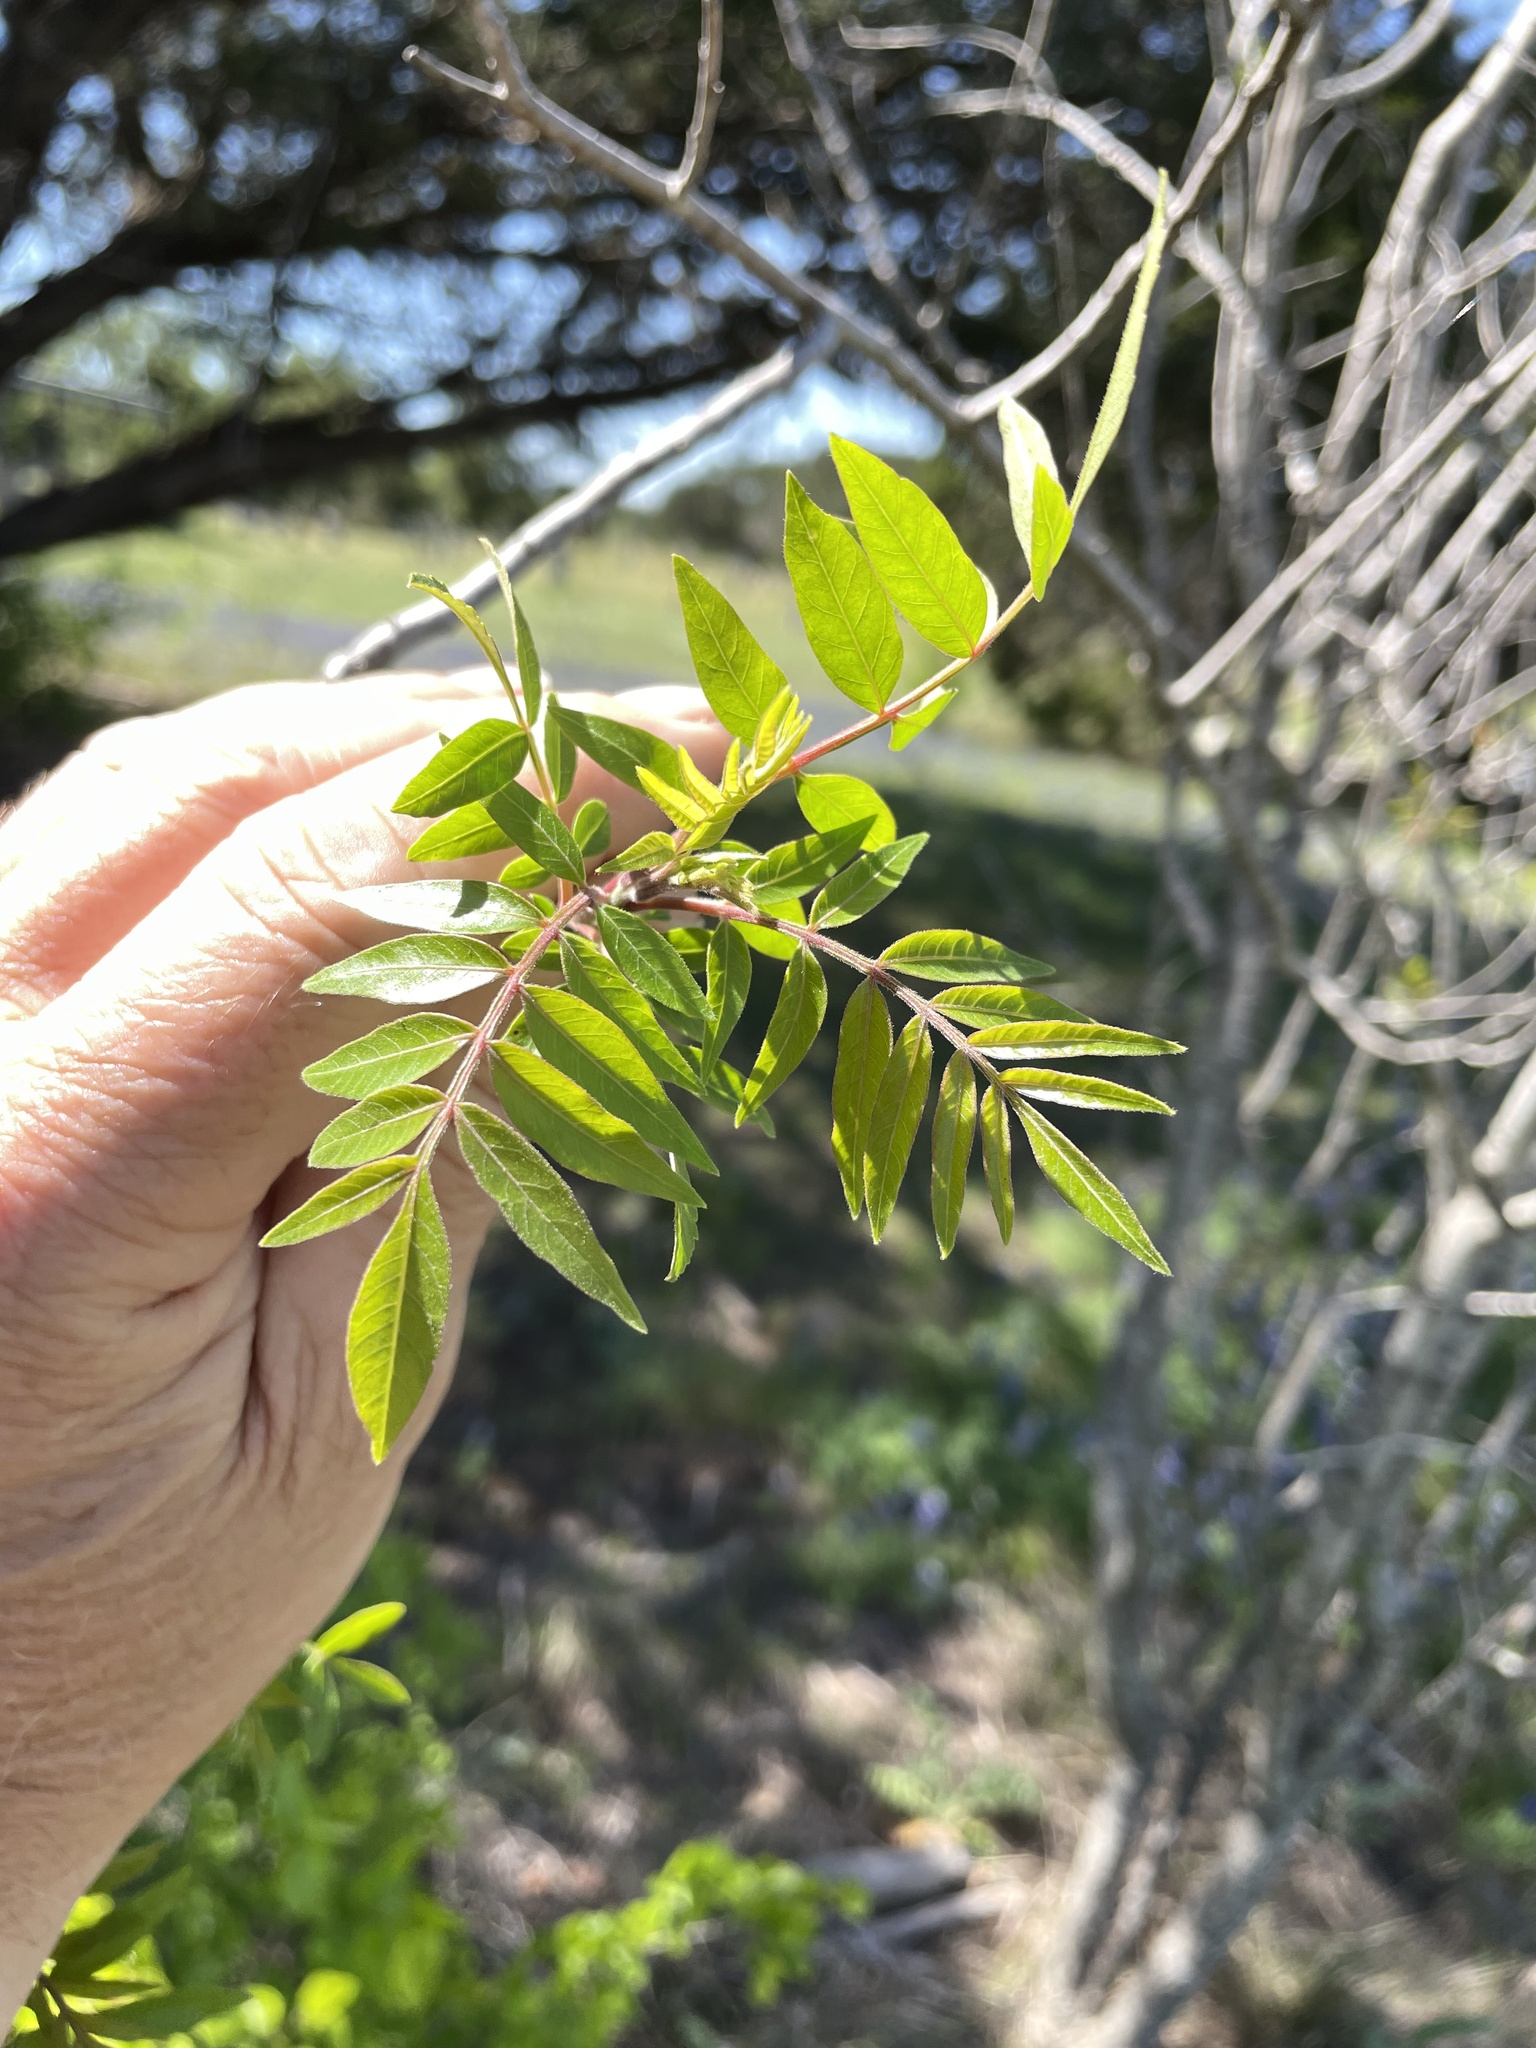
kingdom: Plantae
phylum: Tracheophyta
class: Magnoliopsida
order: Sapindales
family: Anacardiaceae
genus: Rhus
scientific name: Rhus lanceolata
